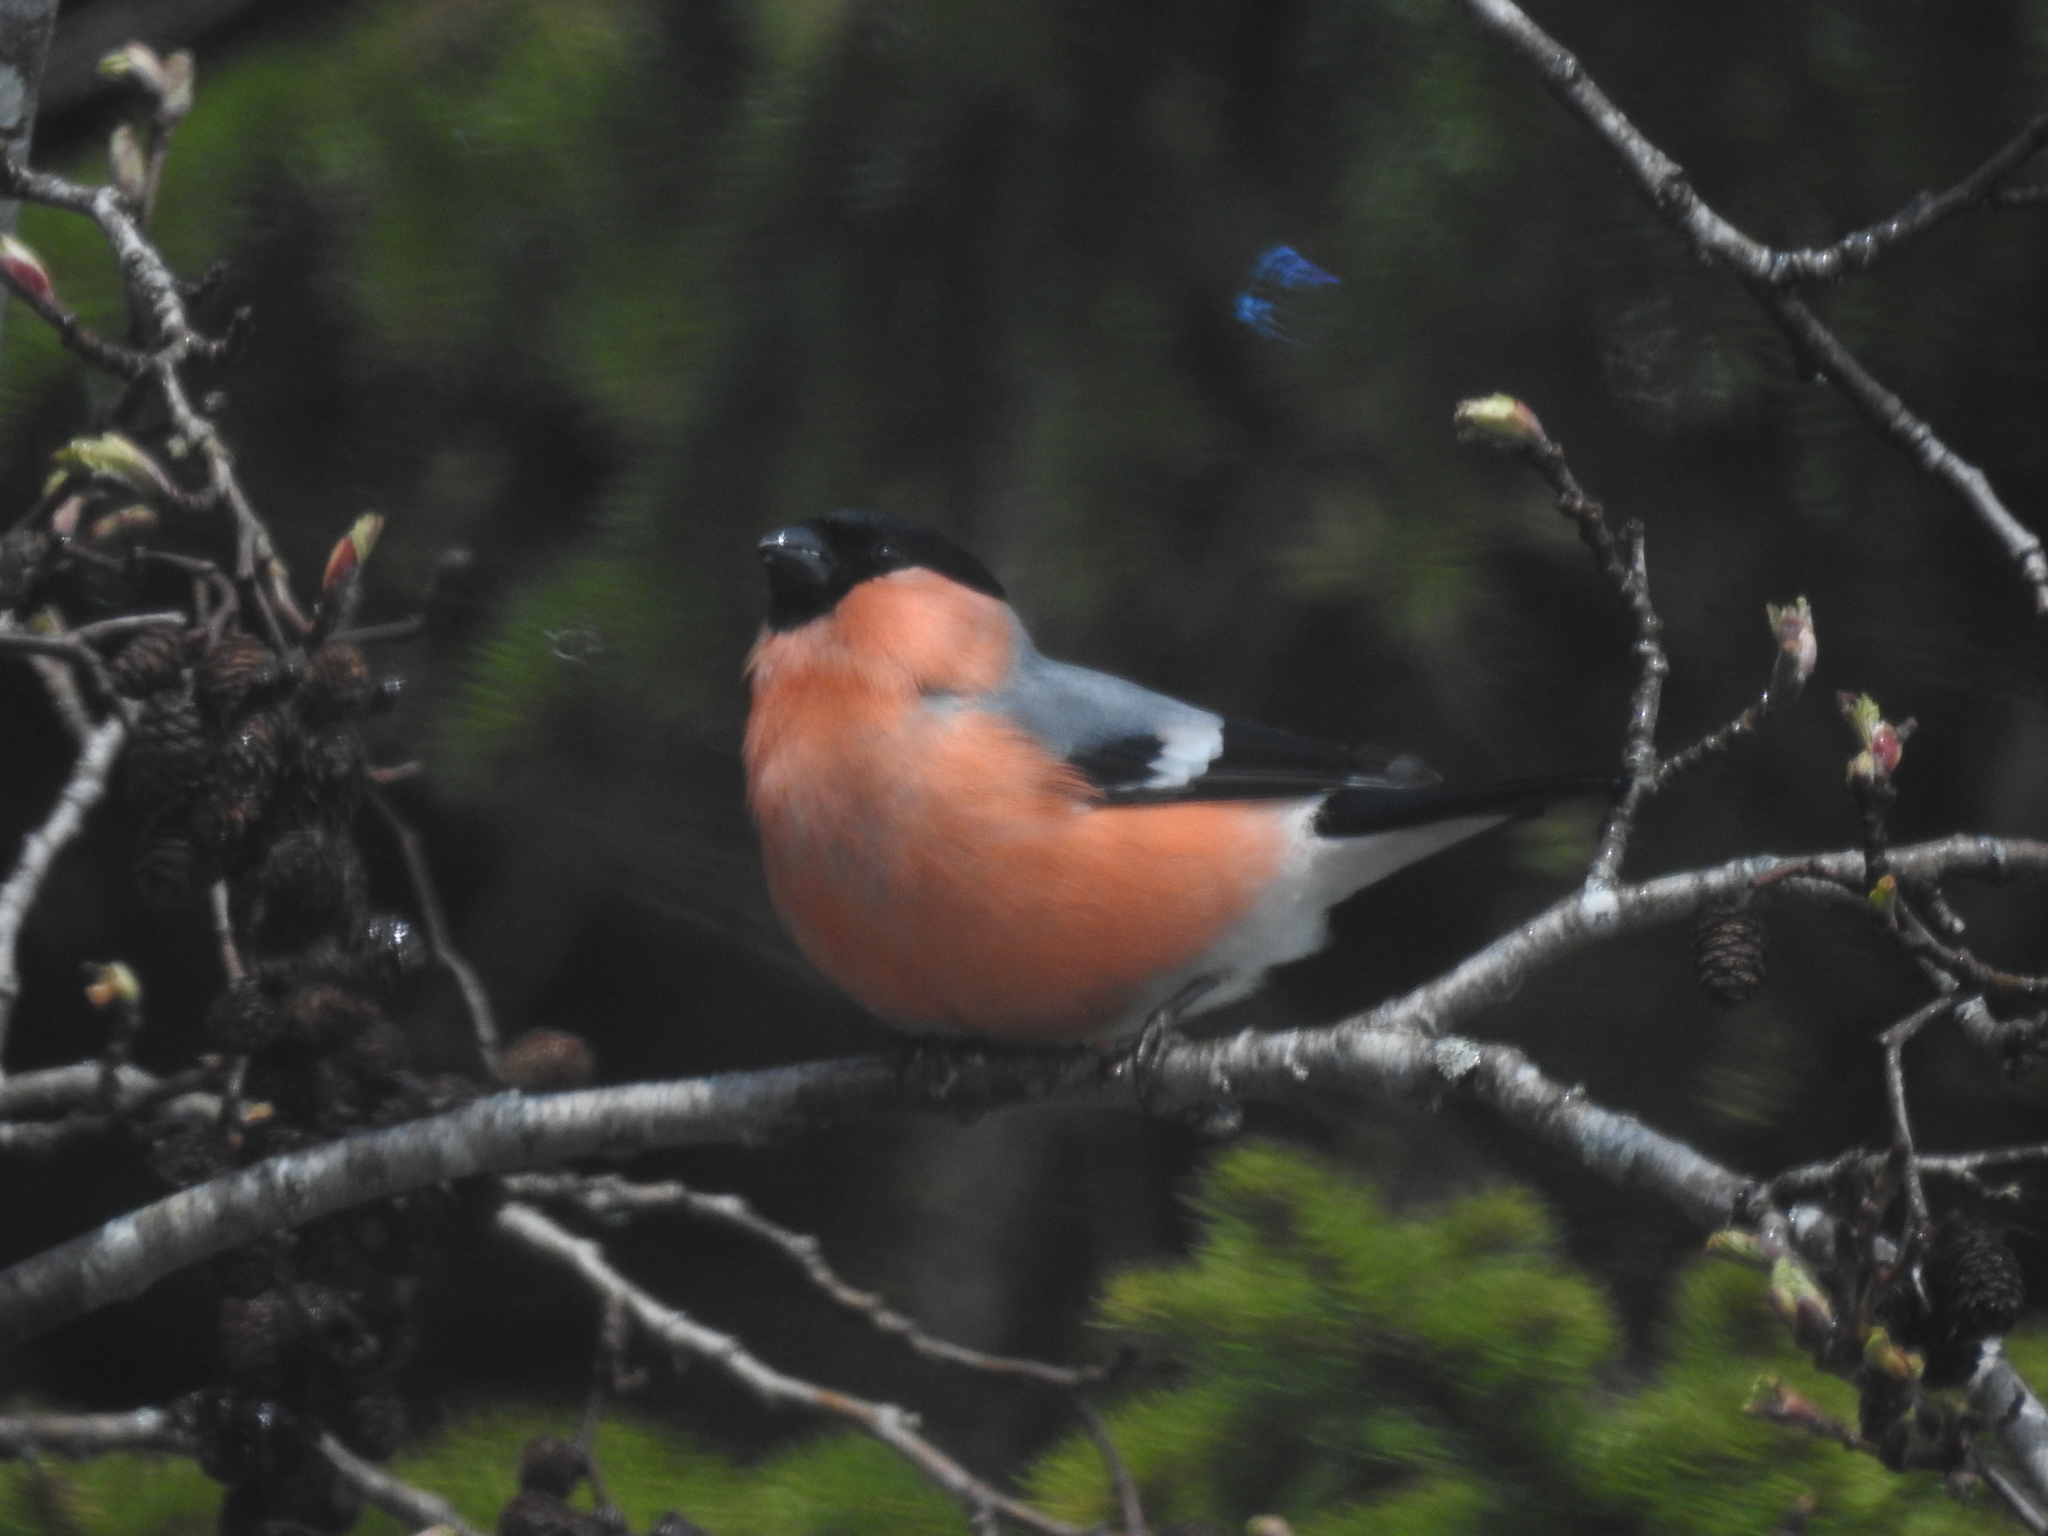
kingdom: Animalia
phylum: Chordata
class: Aves
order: Passeriformes
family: Fringillidae
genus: Pyrrhula
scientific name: Pyrrhula pyrrhula
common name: Eurasian bullfinch
